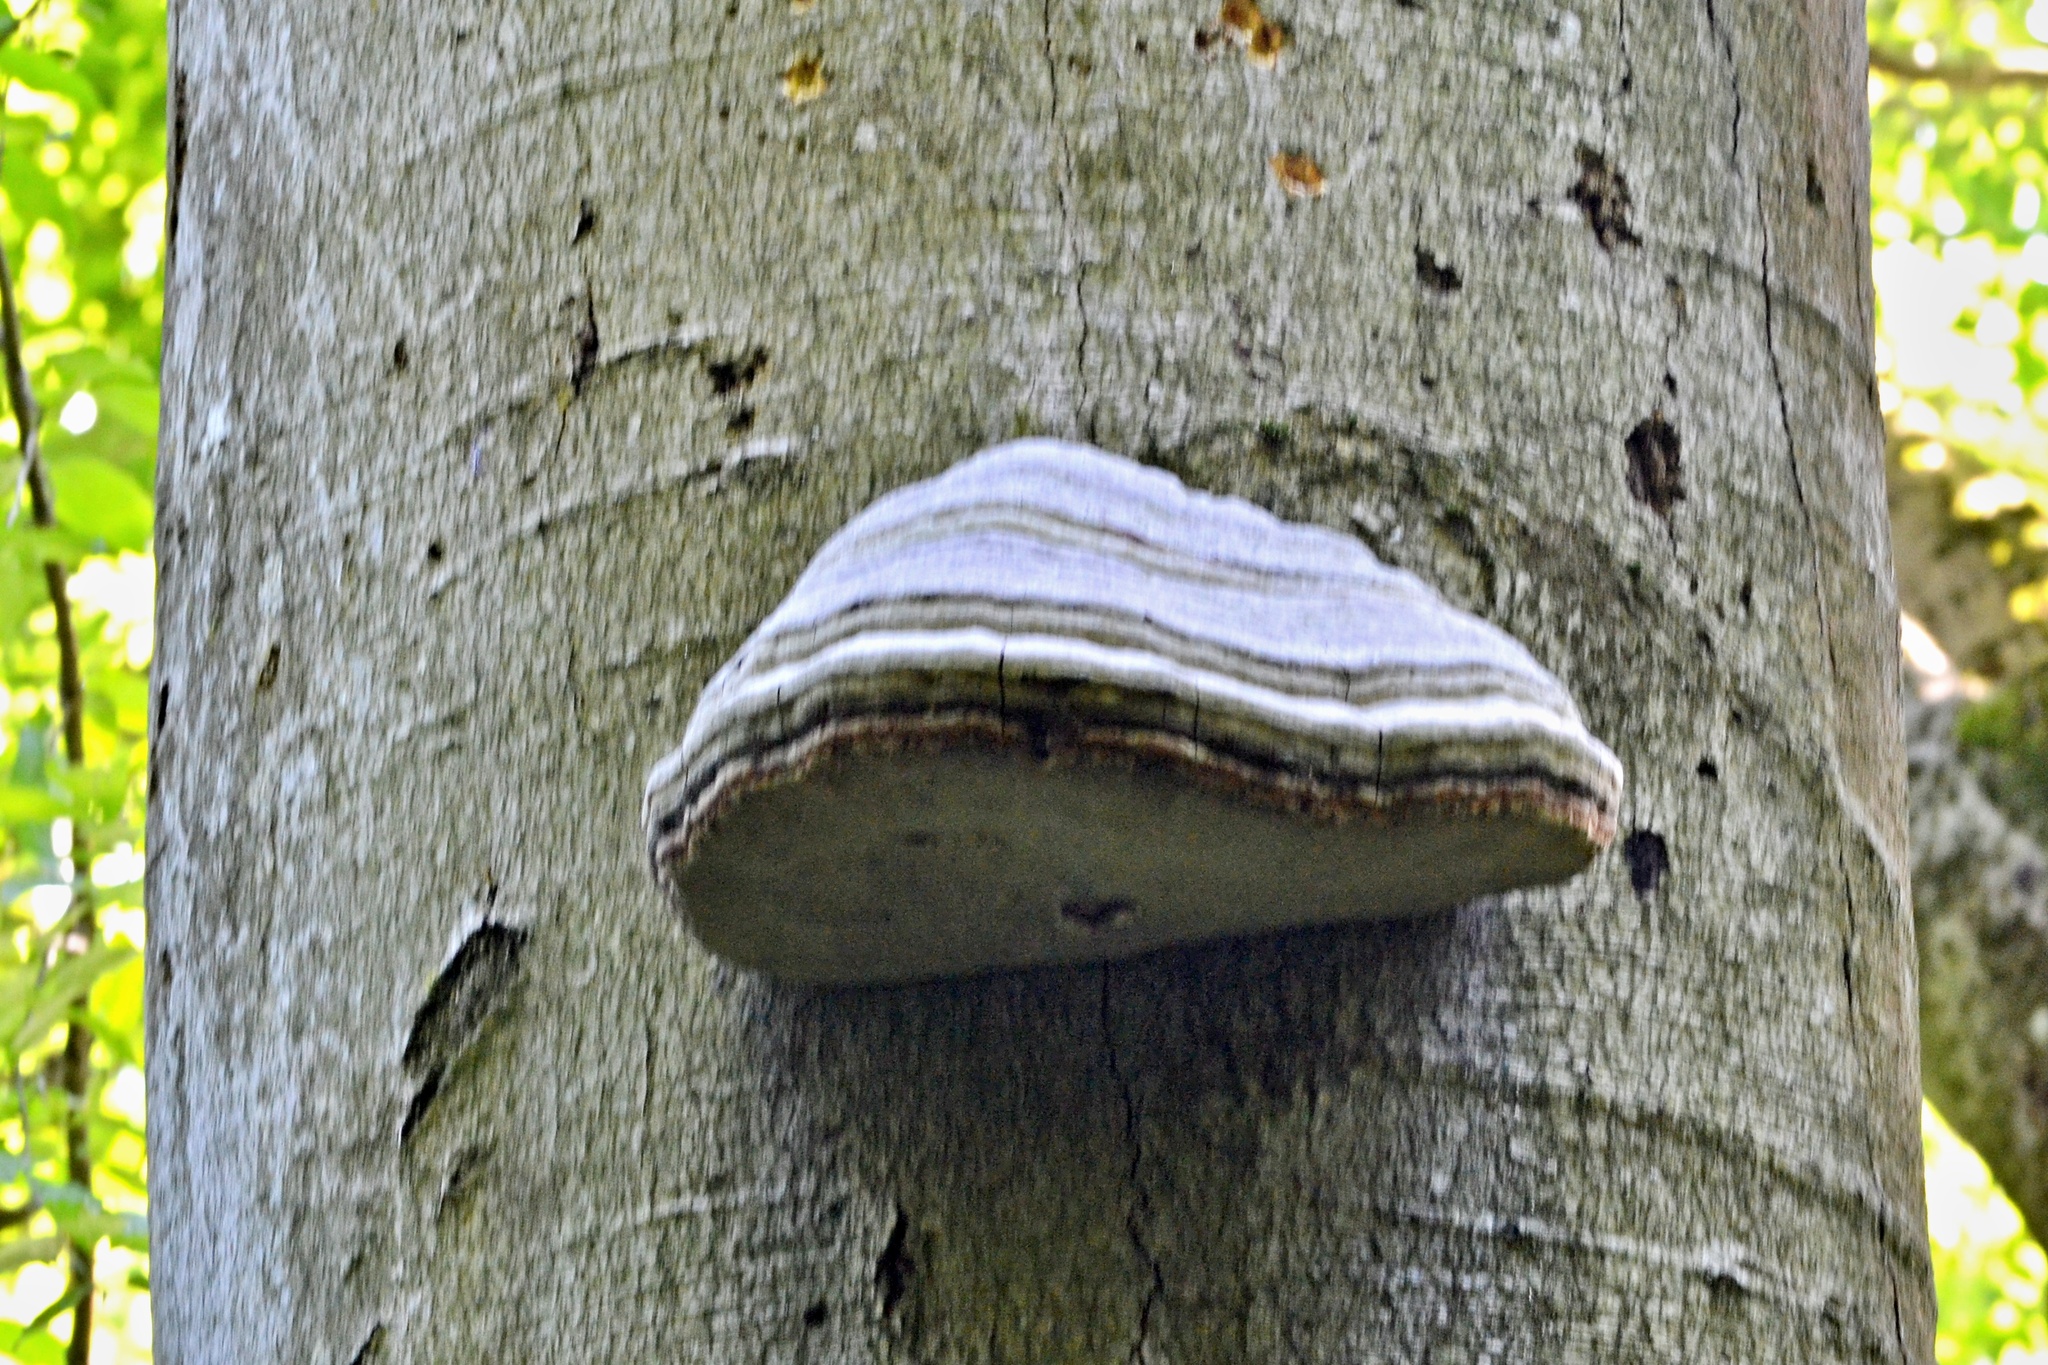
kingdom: Fungi
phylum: Basidiomycota
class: Agaricomycetes
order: Polyporales
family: Polyporaceae
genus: Fomes
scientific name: Fomes fomentarius
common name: Hoof fungus
